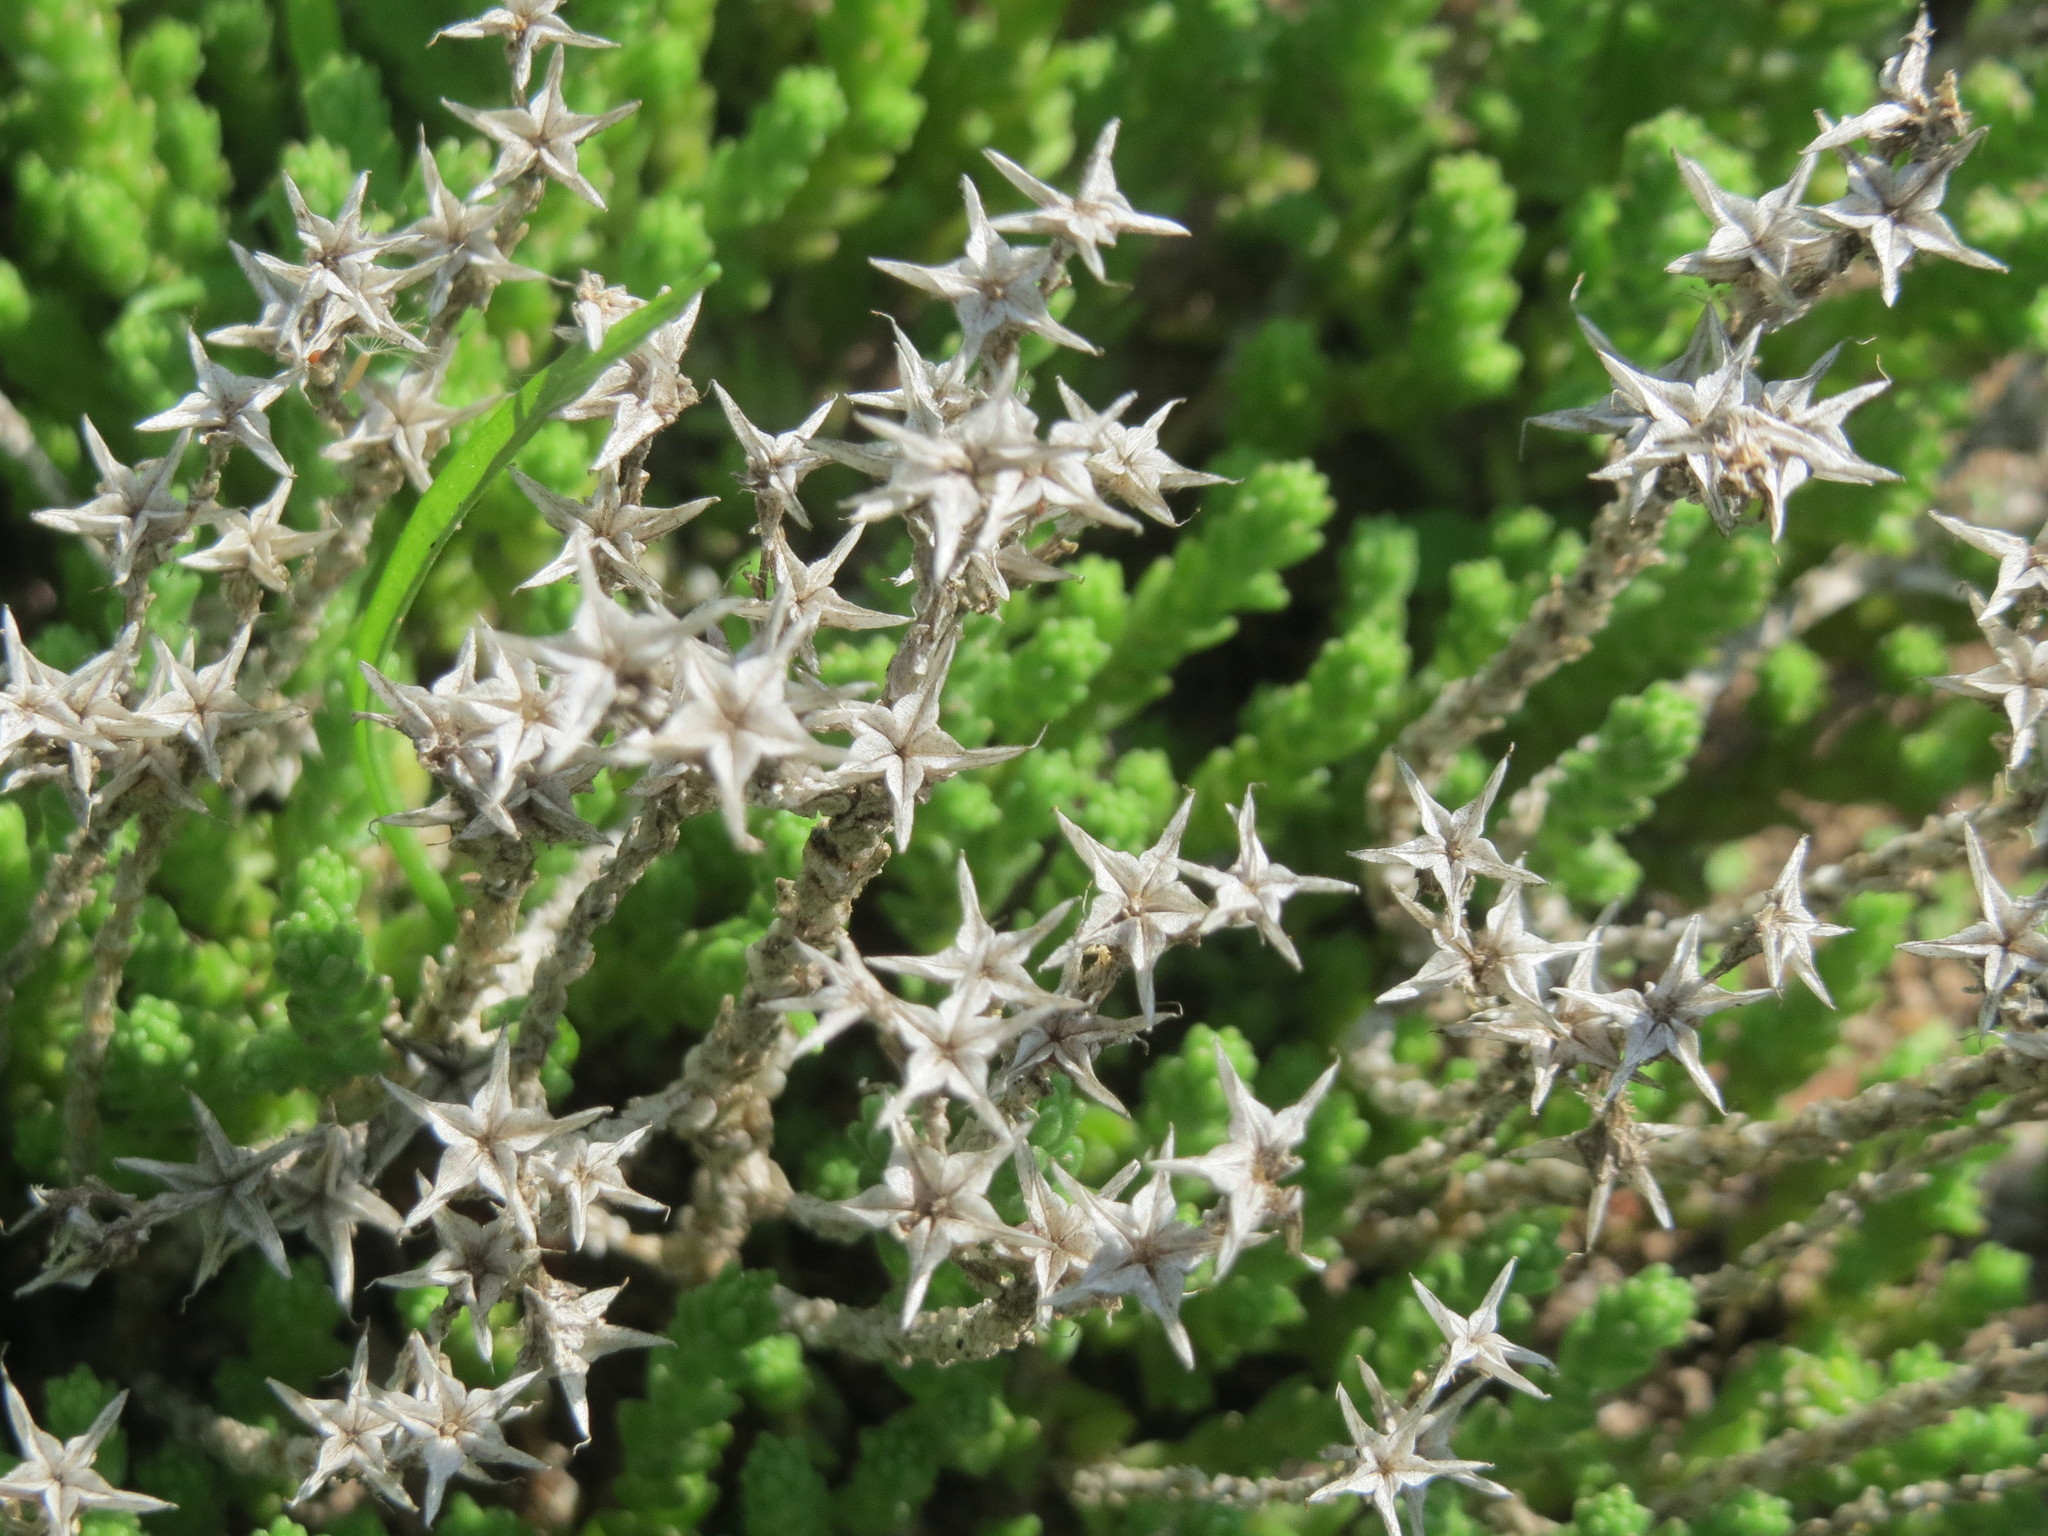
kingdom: Plantae
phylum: Tracheophyta
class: Magnoliopsida
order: Saxifragales
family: Crassulaceae
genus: Sedum
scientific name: Sedum acre
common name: Biting stonecrop
